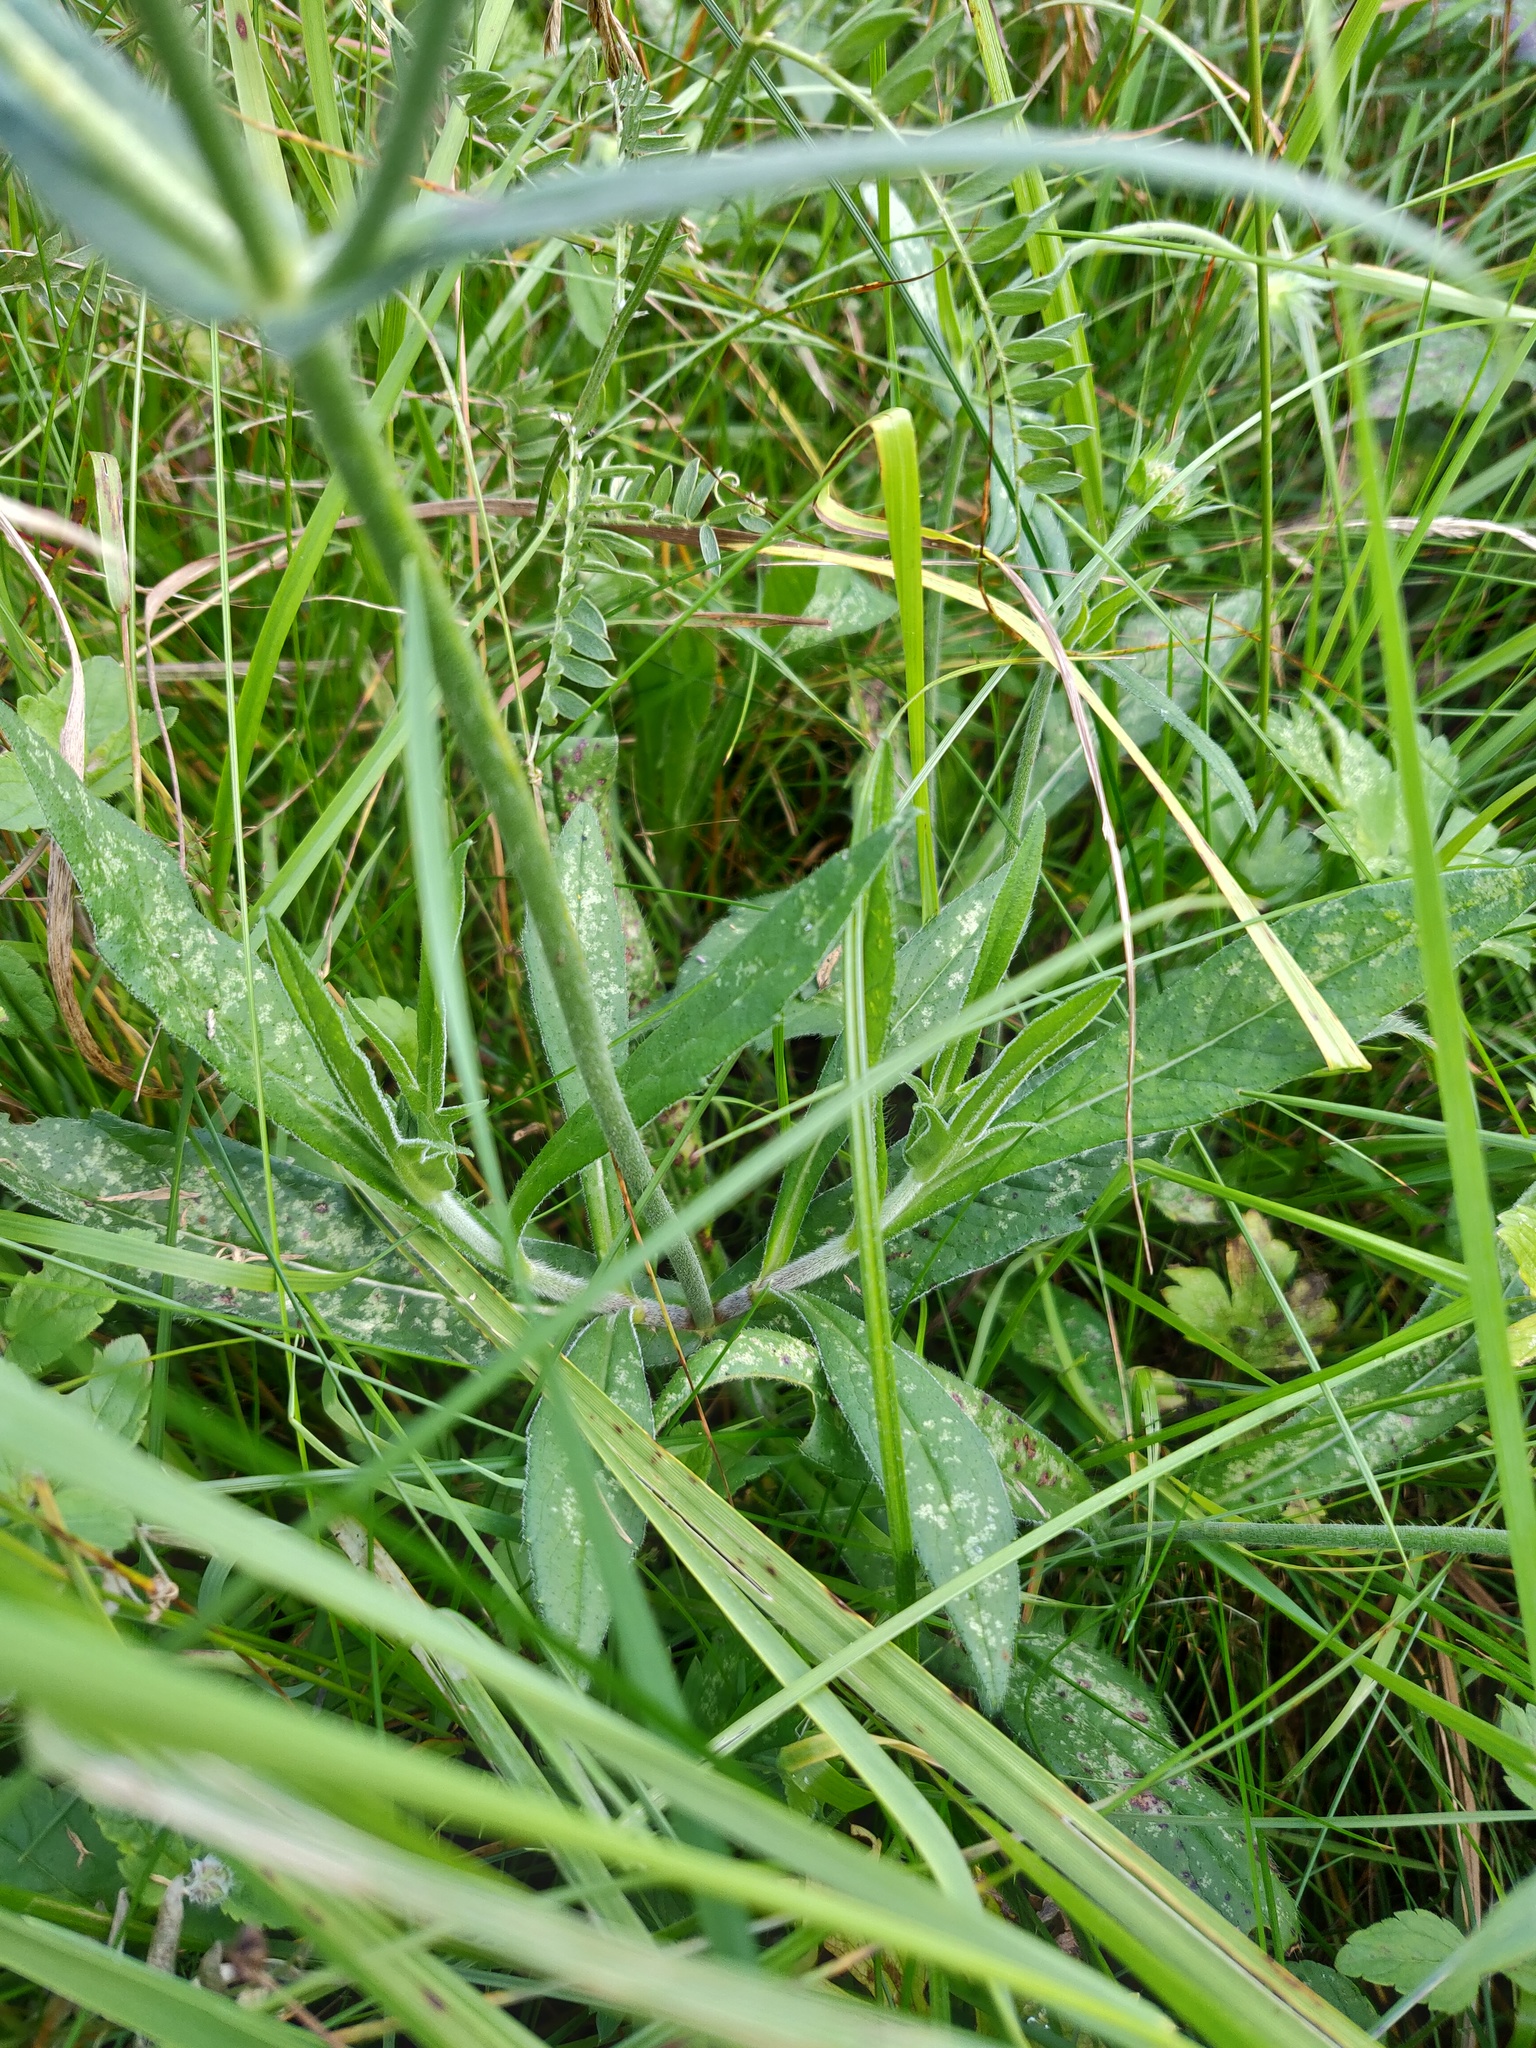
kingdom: Plantae
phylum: Tracheophyta
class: Magnoliopsida
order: Dipsacales
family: Caprifoliaceae
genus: Knautia
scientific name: Knautia arvensis
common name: Field scabiosa
